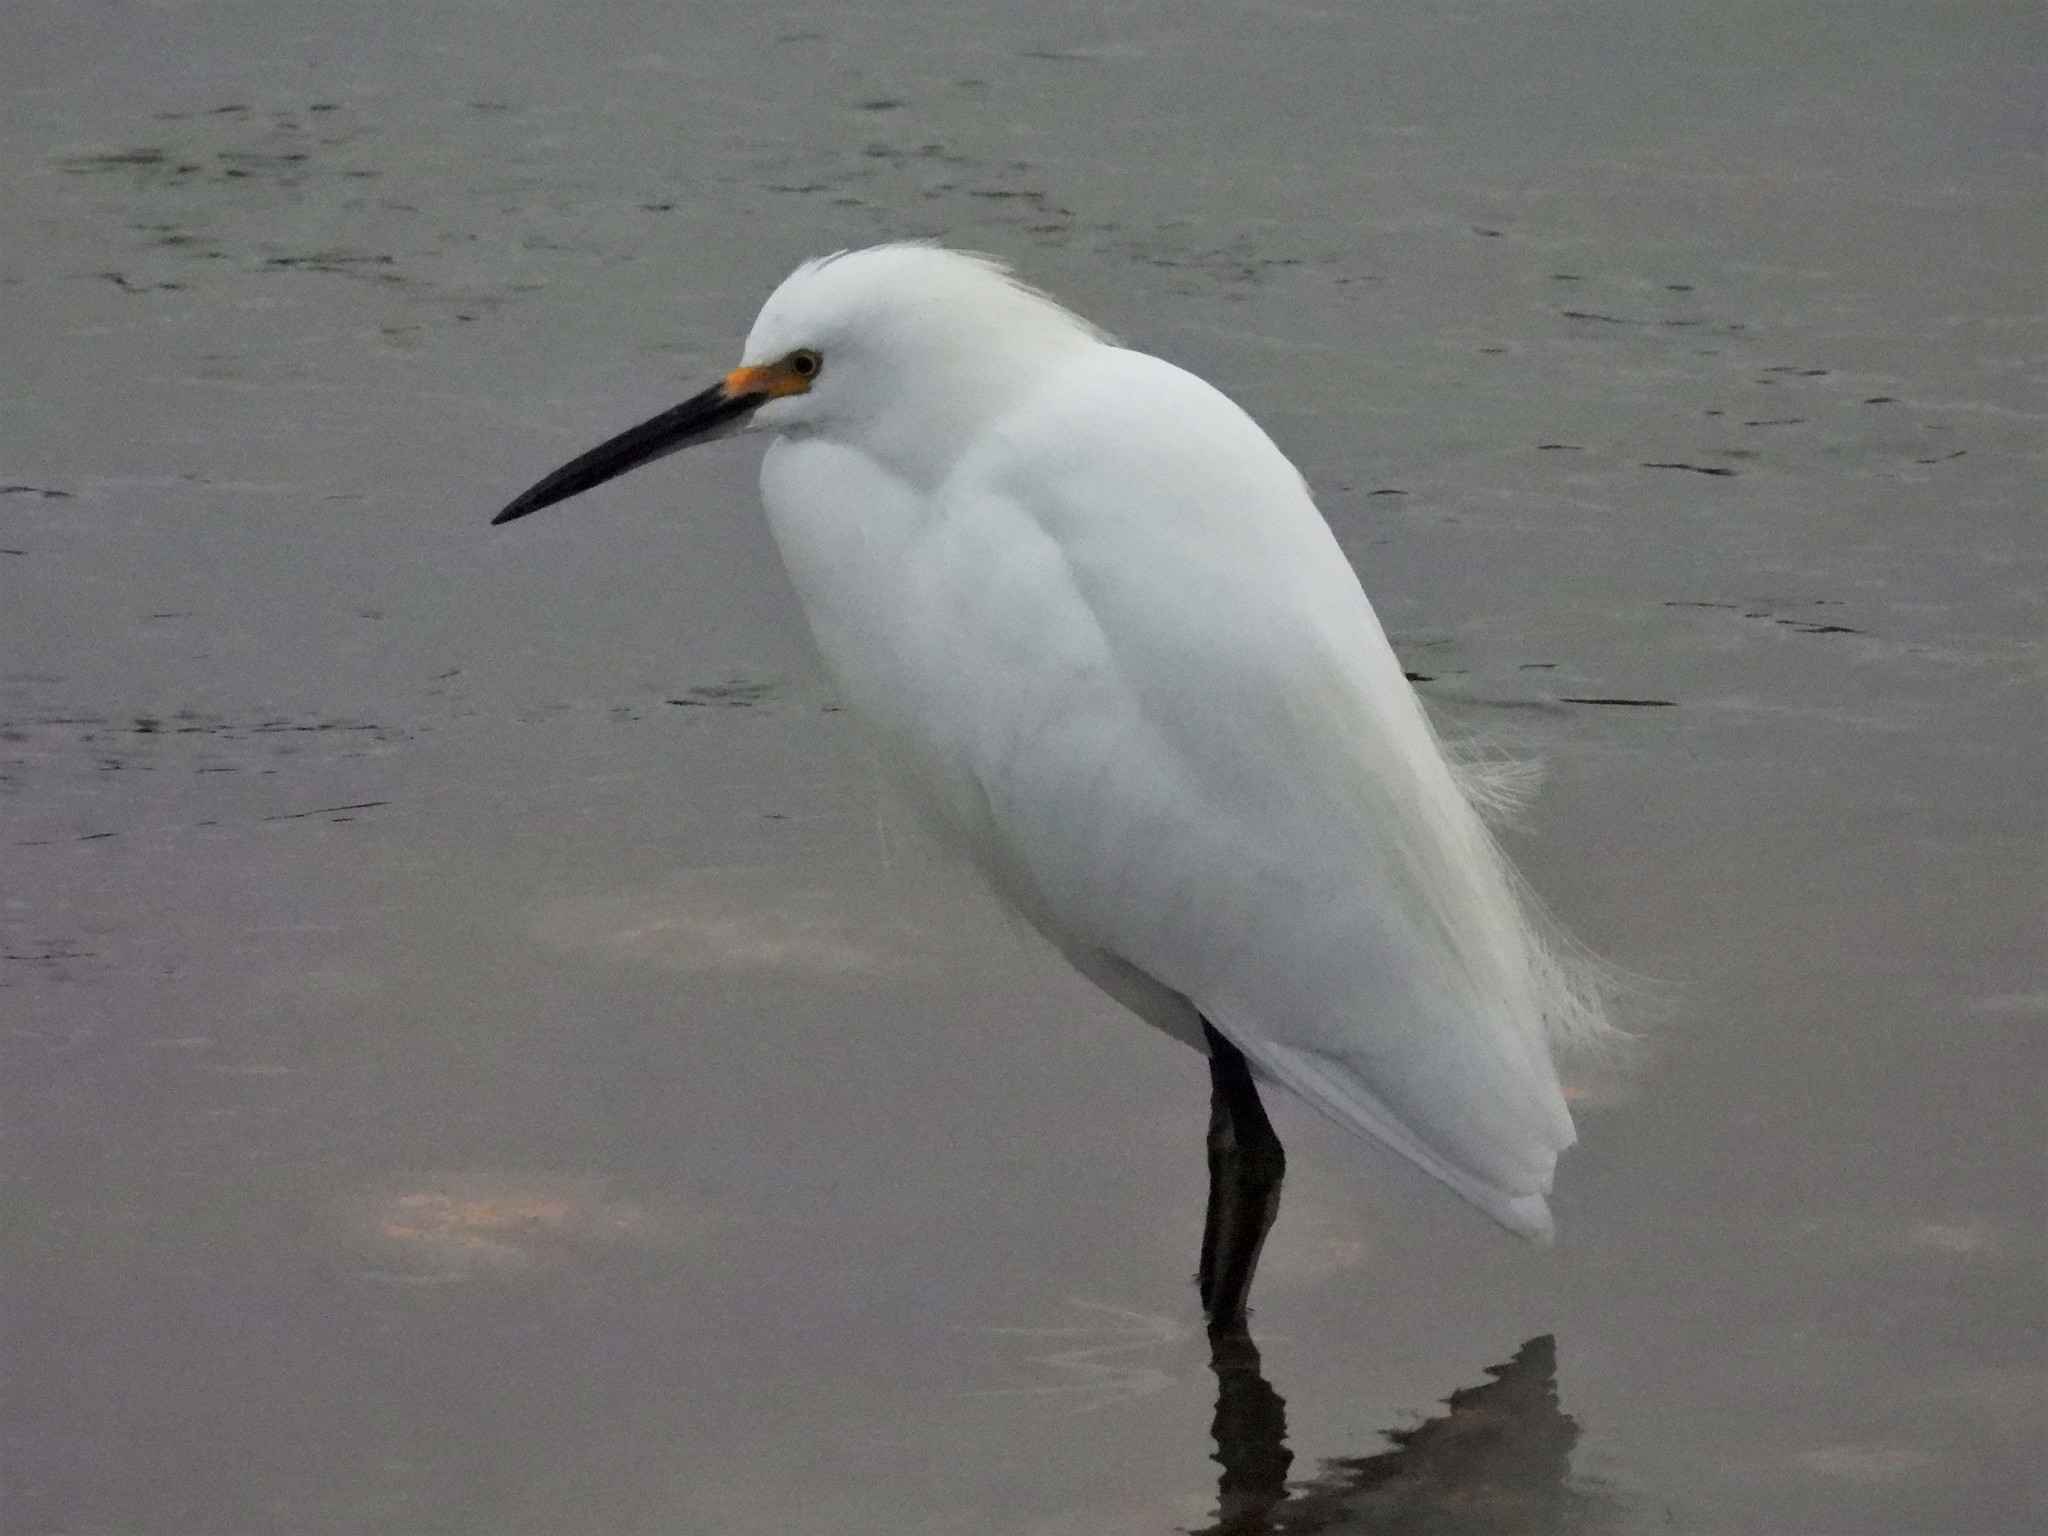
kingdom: Animalia
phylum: Chordata
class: Aves
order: Pelecaniformes
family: Ardeidae
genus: Egretta
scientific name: Egretta thula
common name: Snowy egret
